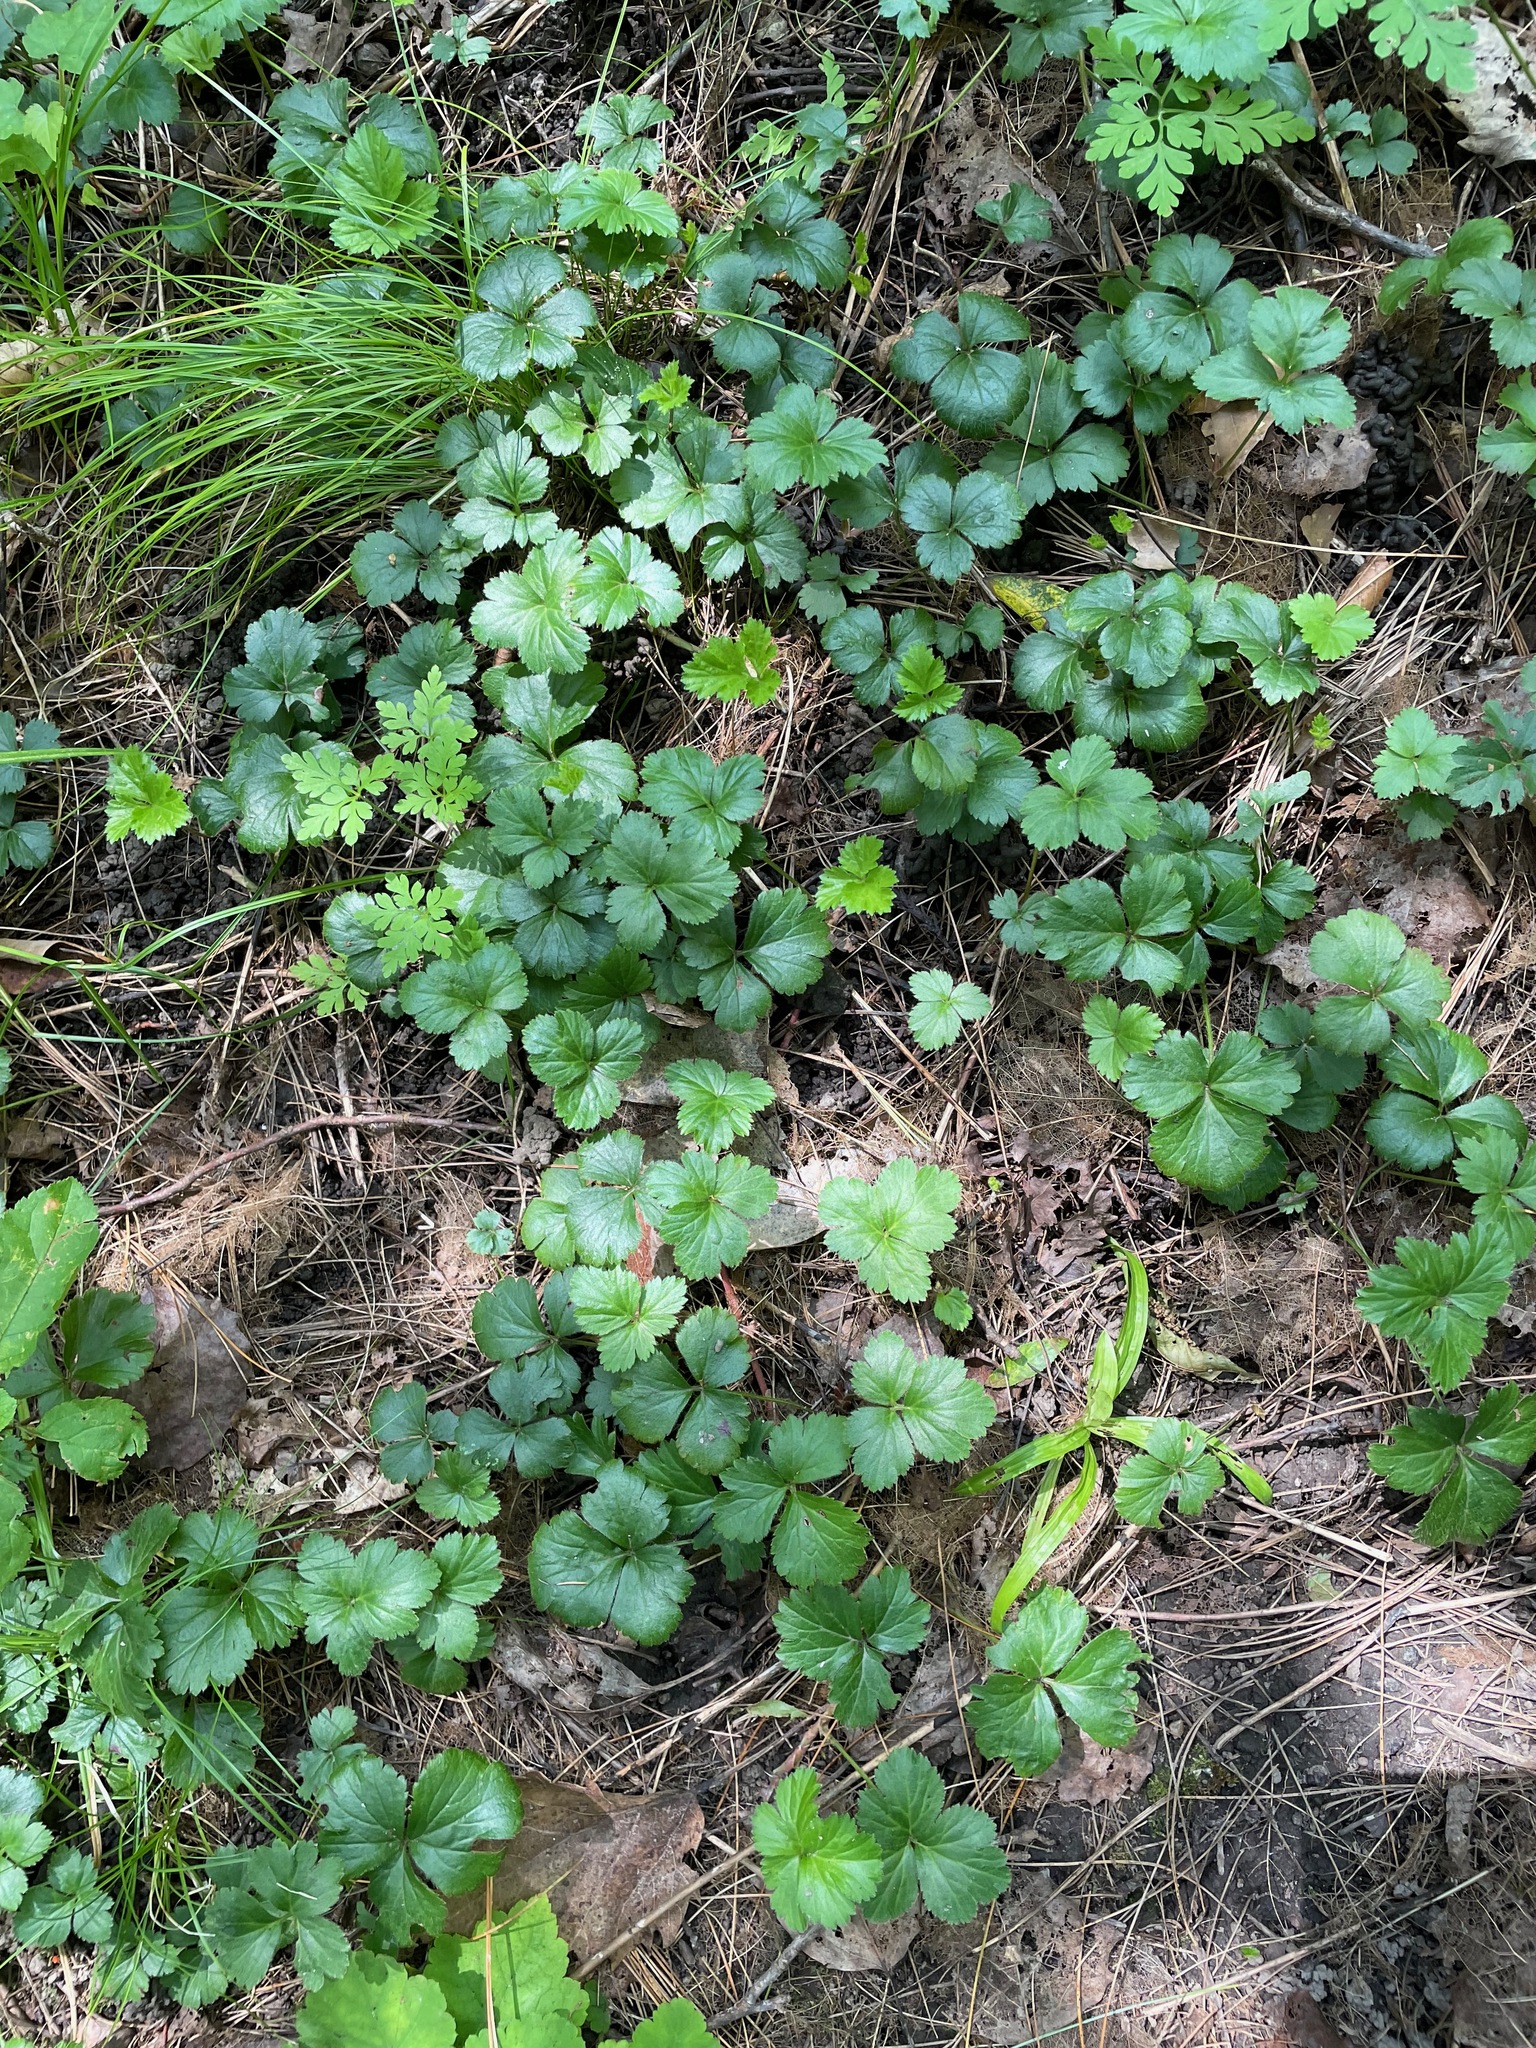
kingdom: Plantae
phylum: Tracheophyta
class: Magnoliopsida
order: Rosales
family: Rosaceae
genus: Geum
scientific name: Geum fragarioides
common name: Appalachian barren strawberry
